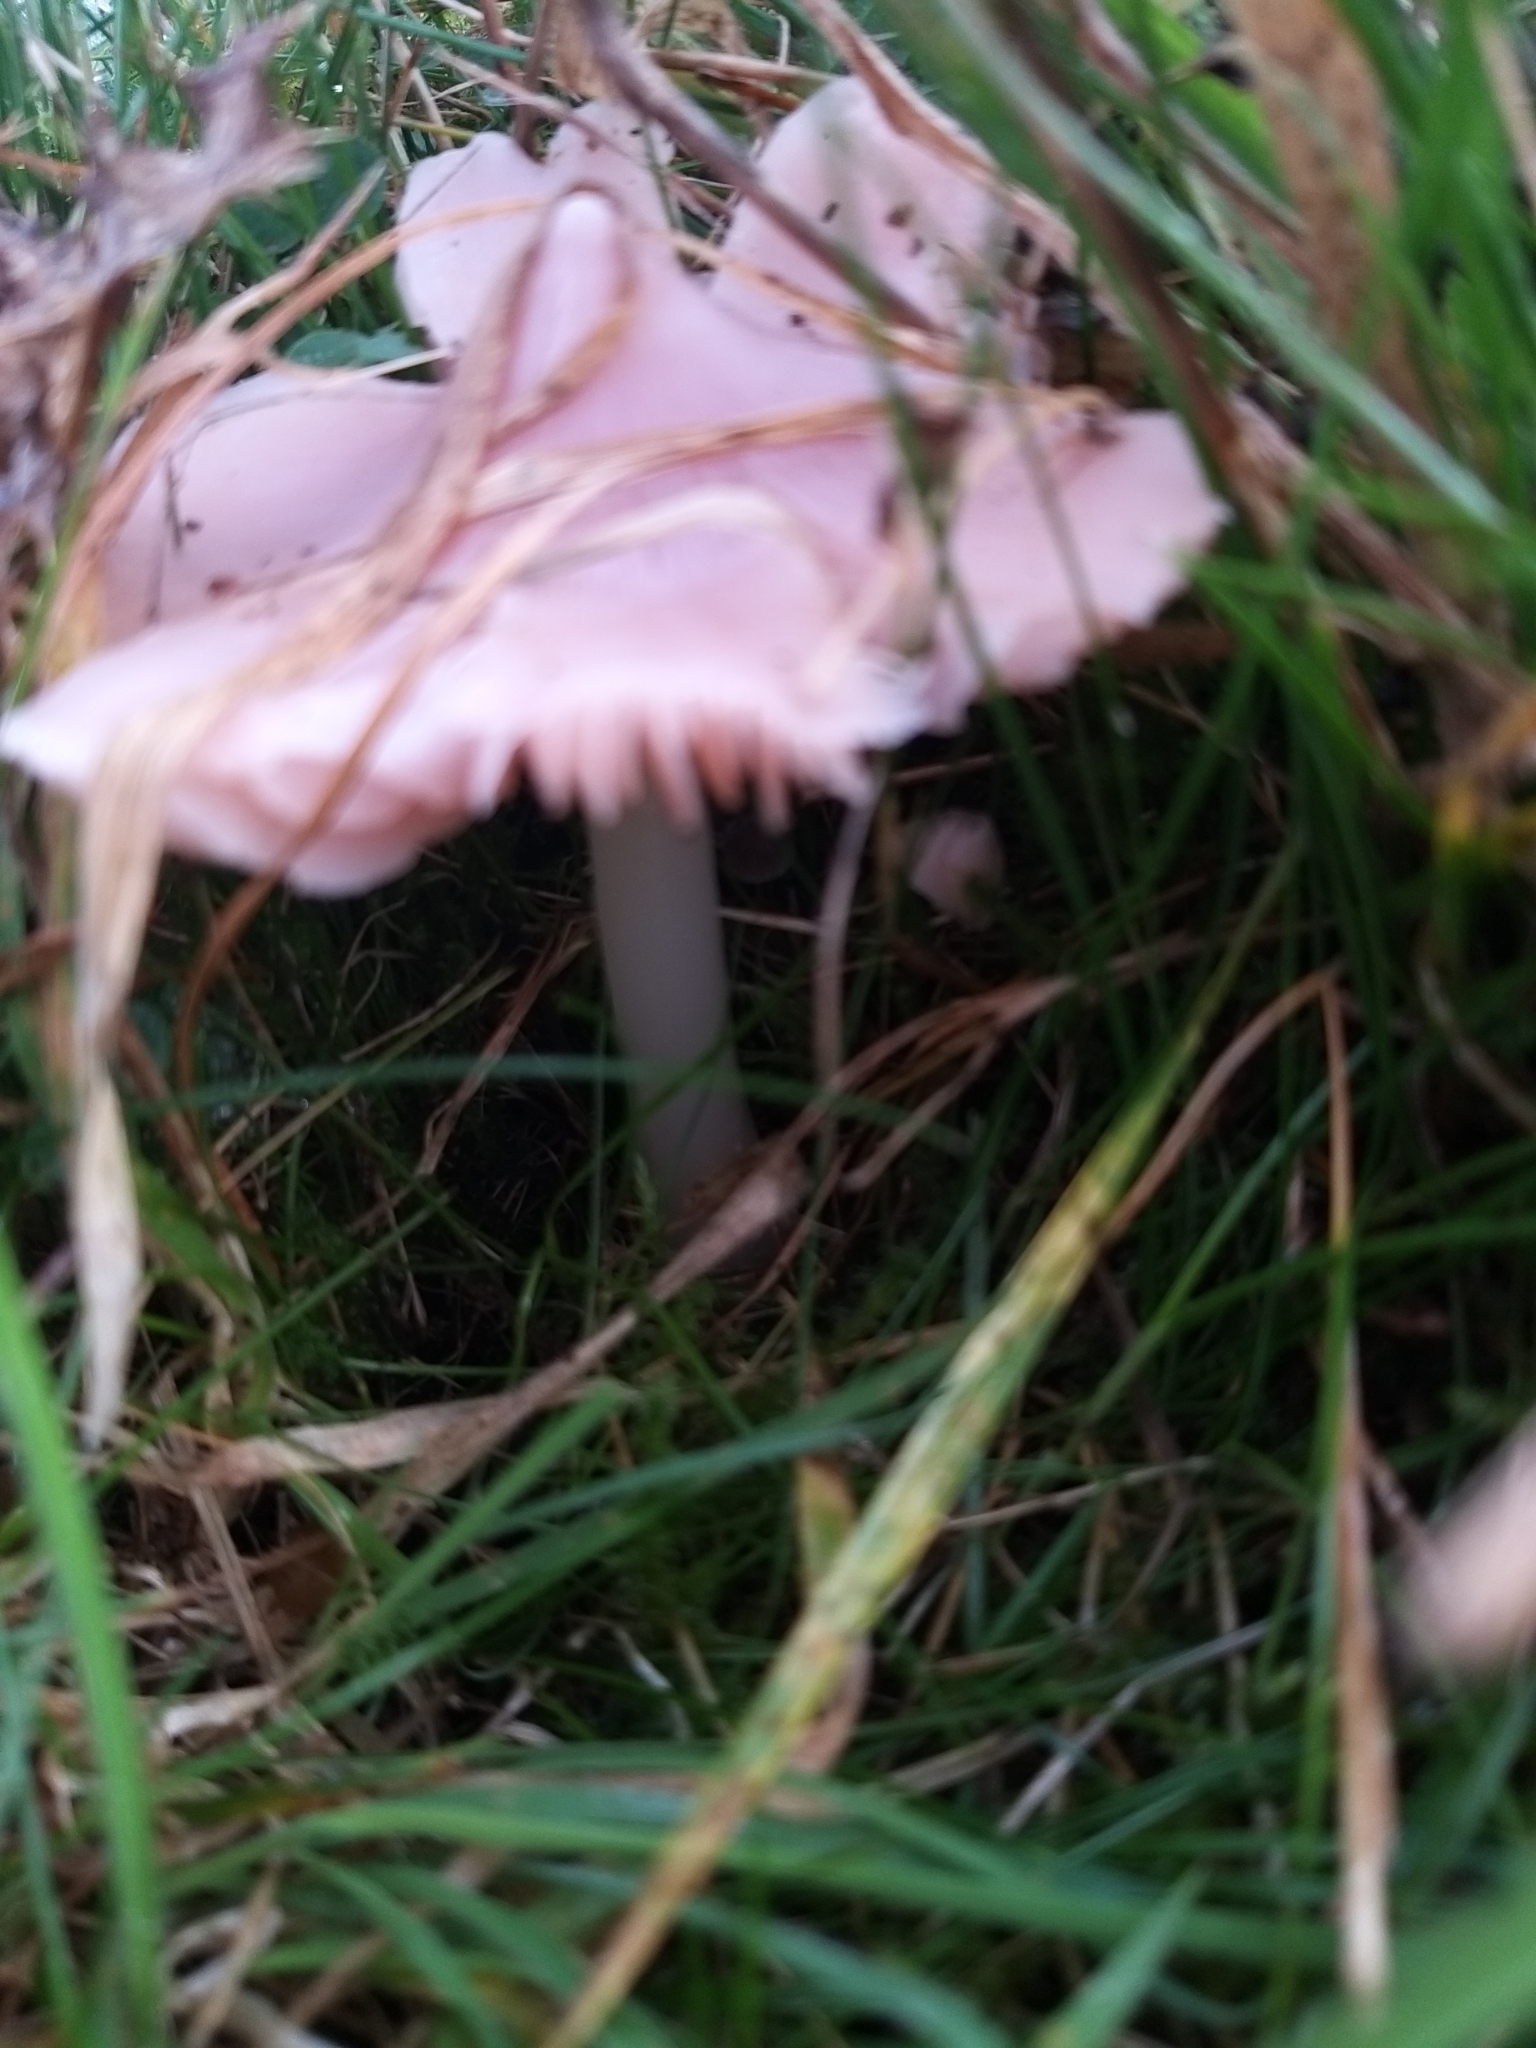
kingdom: Fungi
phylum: Basidiomycota
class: Agaricomycetes
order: Agaricales
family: Hygrophoraceae
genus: Porpolomopsis
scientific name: Porpolomopsis calyptriformis
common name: Pink waxcap
